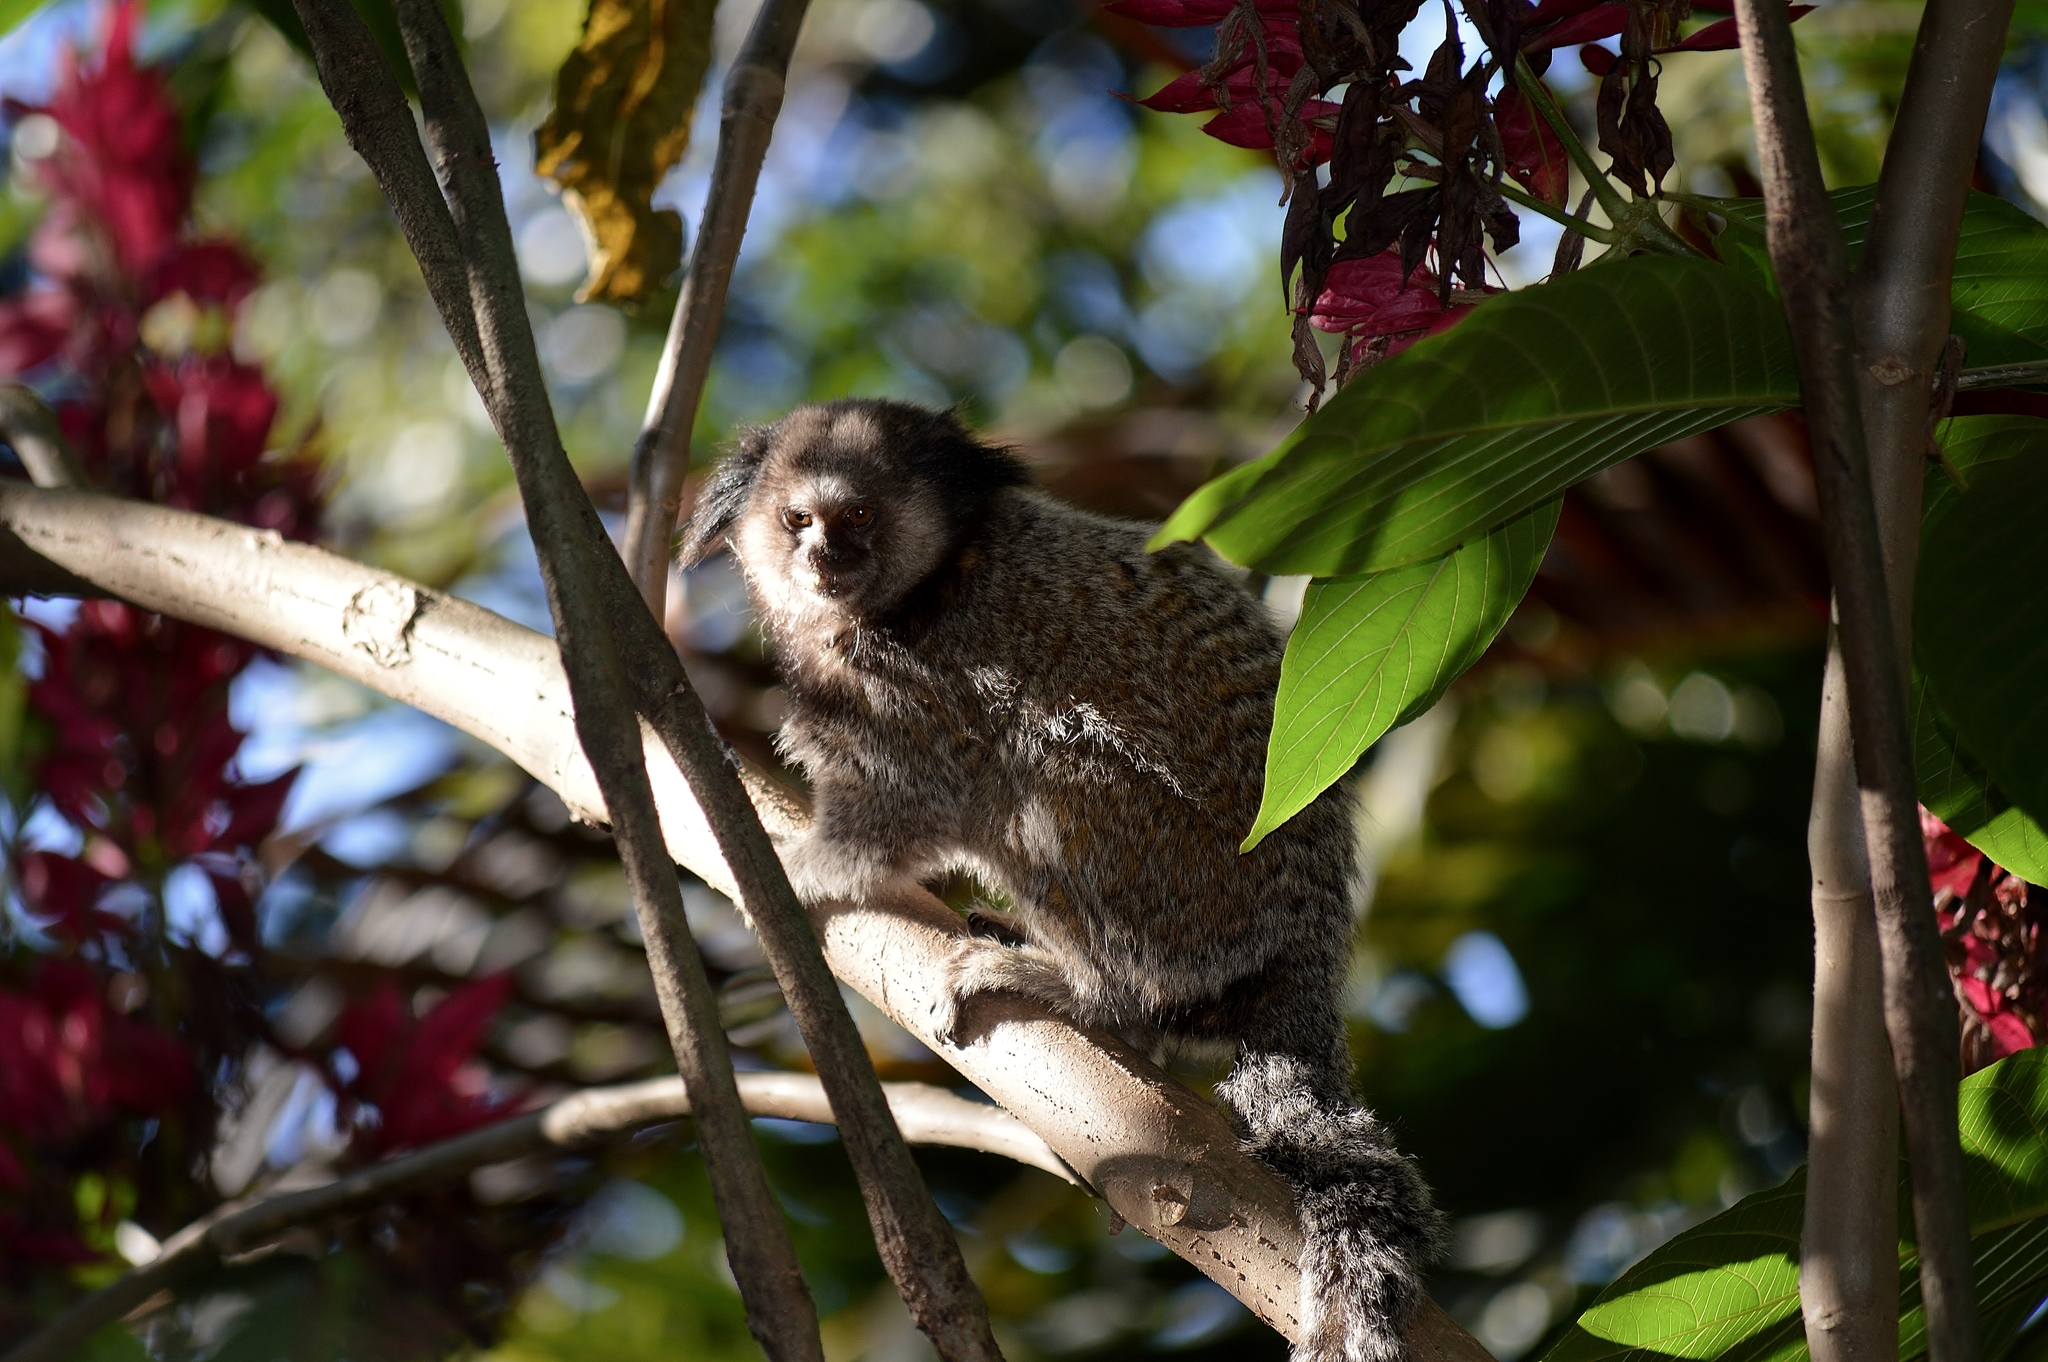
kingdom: Animalia
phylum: Chordata
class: Mammalia
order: Primates
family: Callitrichidae
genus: Callithrix
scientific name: Callithrix penicillata
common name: Black-tufted marmoset
